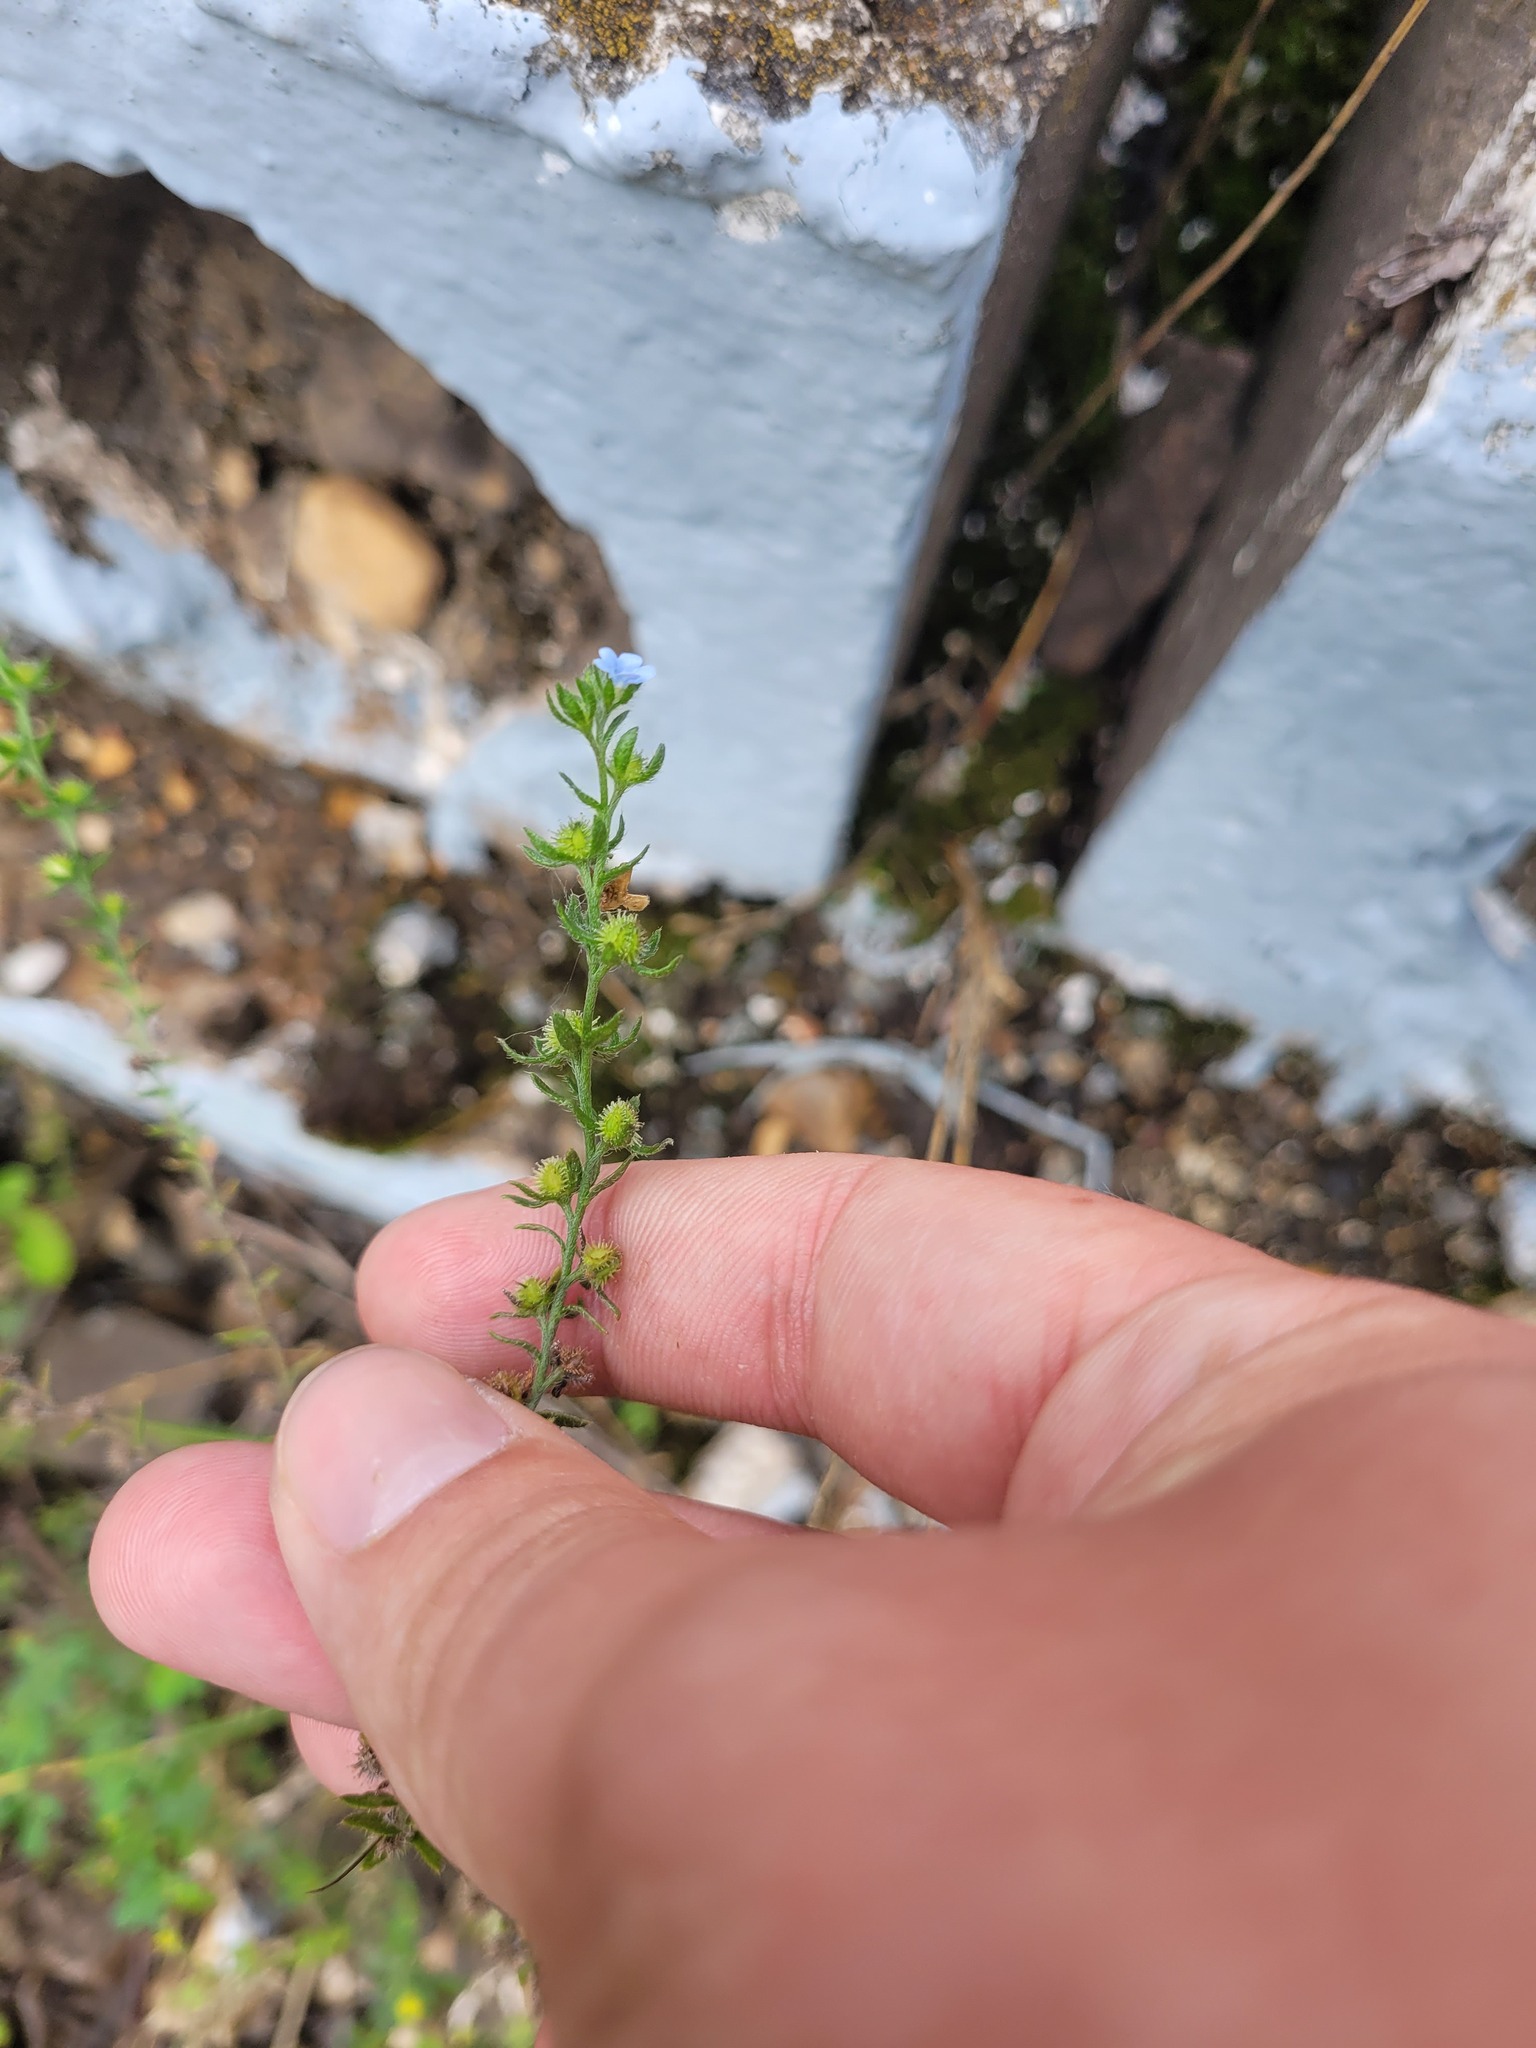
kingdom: Plantae
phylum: Tracheophyta
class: Magnoliopsida
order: Boraginales
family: Boraginaceae
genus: Lappula
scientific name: Lappula squarrosa
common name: European stickseed
